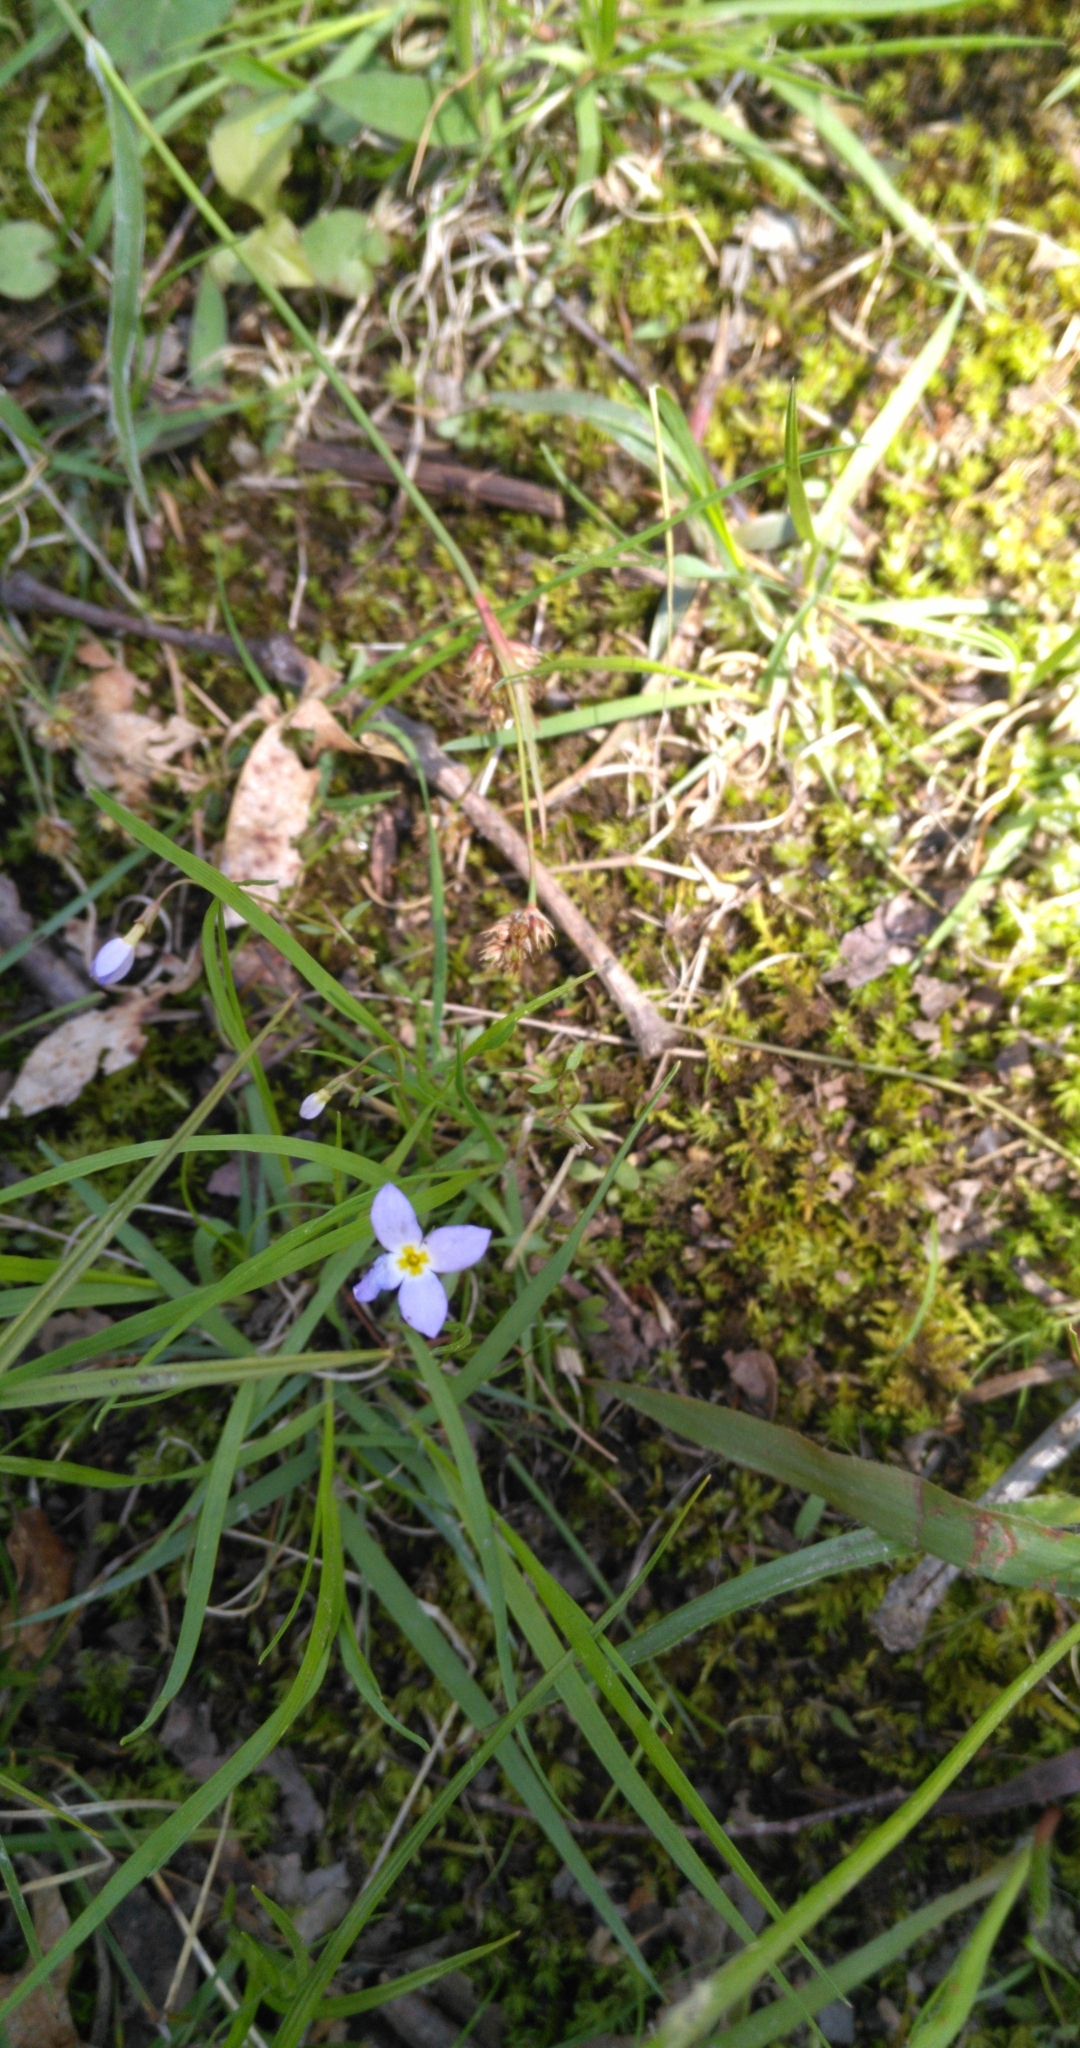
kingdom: Plantae
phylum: Tracheophyta
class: Magnoliopsida
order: Gentianales
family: Rubiaceae
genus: Houstonia
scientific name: Houstonia caerulea
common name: Bluets
